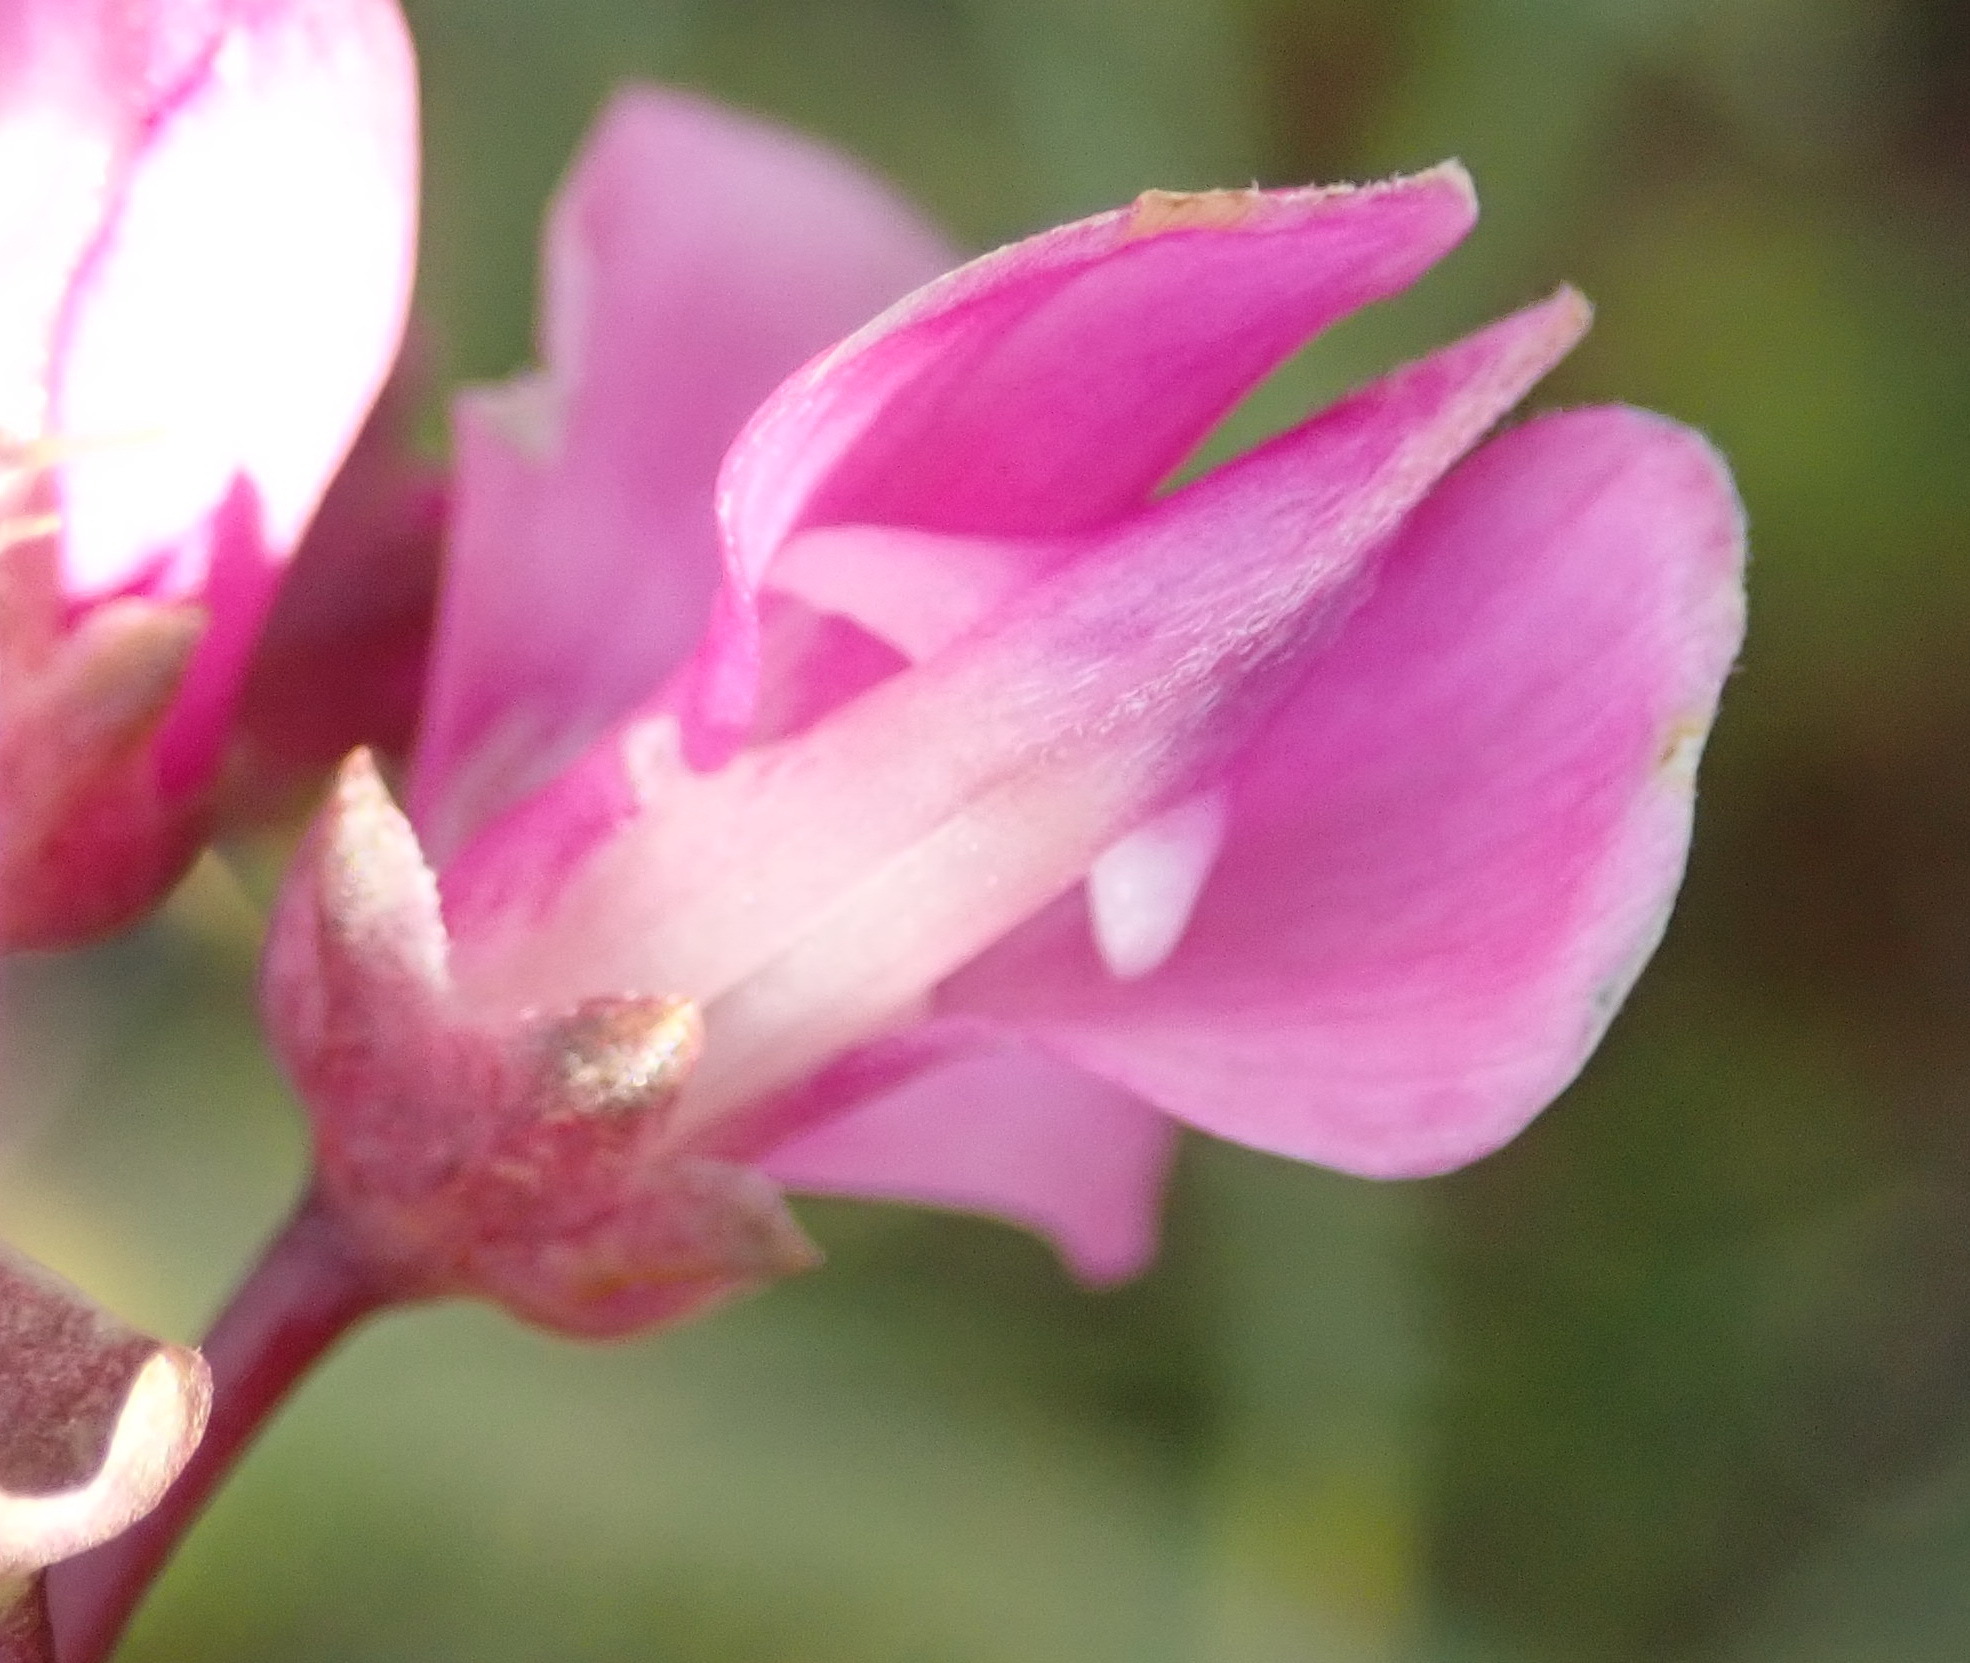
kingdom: Plantae
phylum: Tracheophyta
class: Magnoliopsida
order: Fabales
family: Fabaceae
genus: Indigofera
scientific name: Indigofera filifolia
